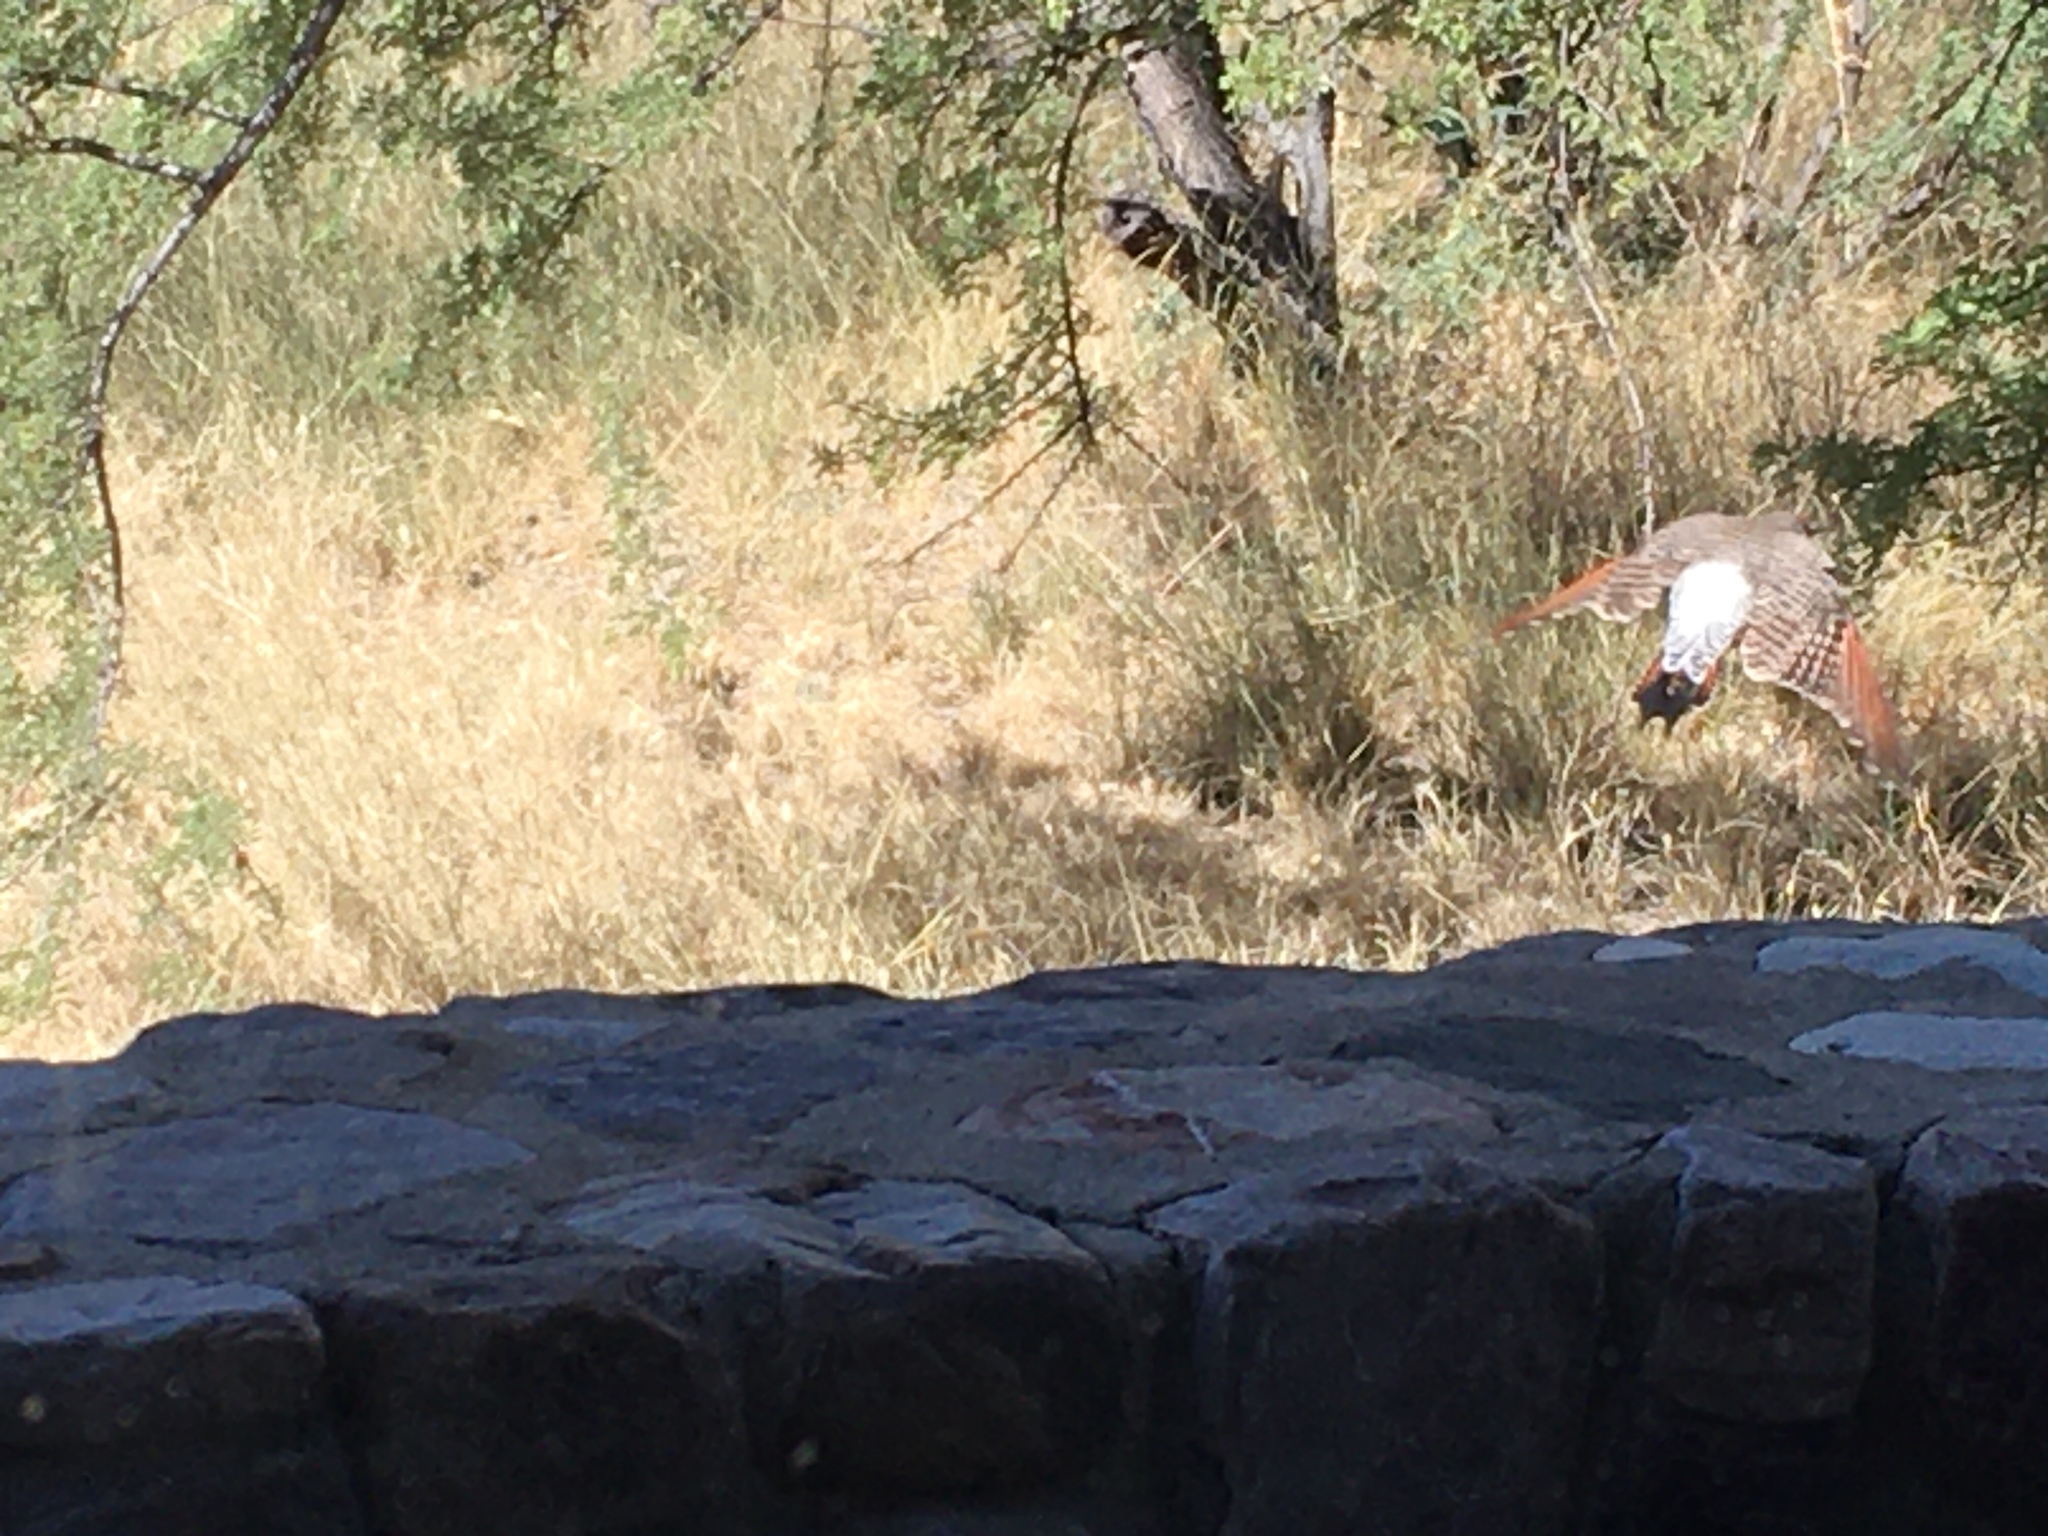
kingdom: Animalia
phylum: Chordata
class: Aves
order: Piciformes
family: Picidae
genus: Colaptes
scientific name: Colaptes auratus
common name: Northern flicker
